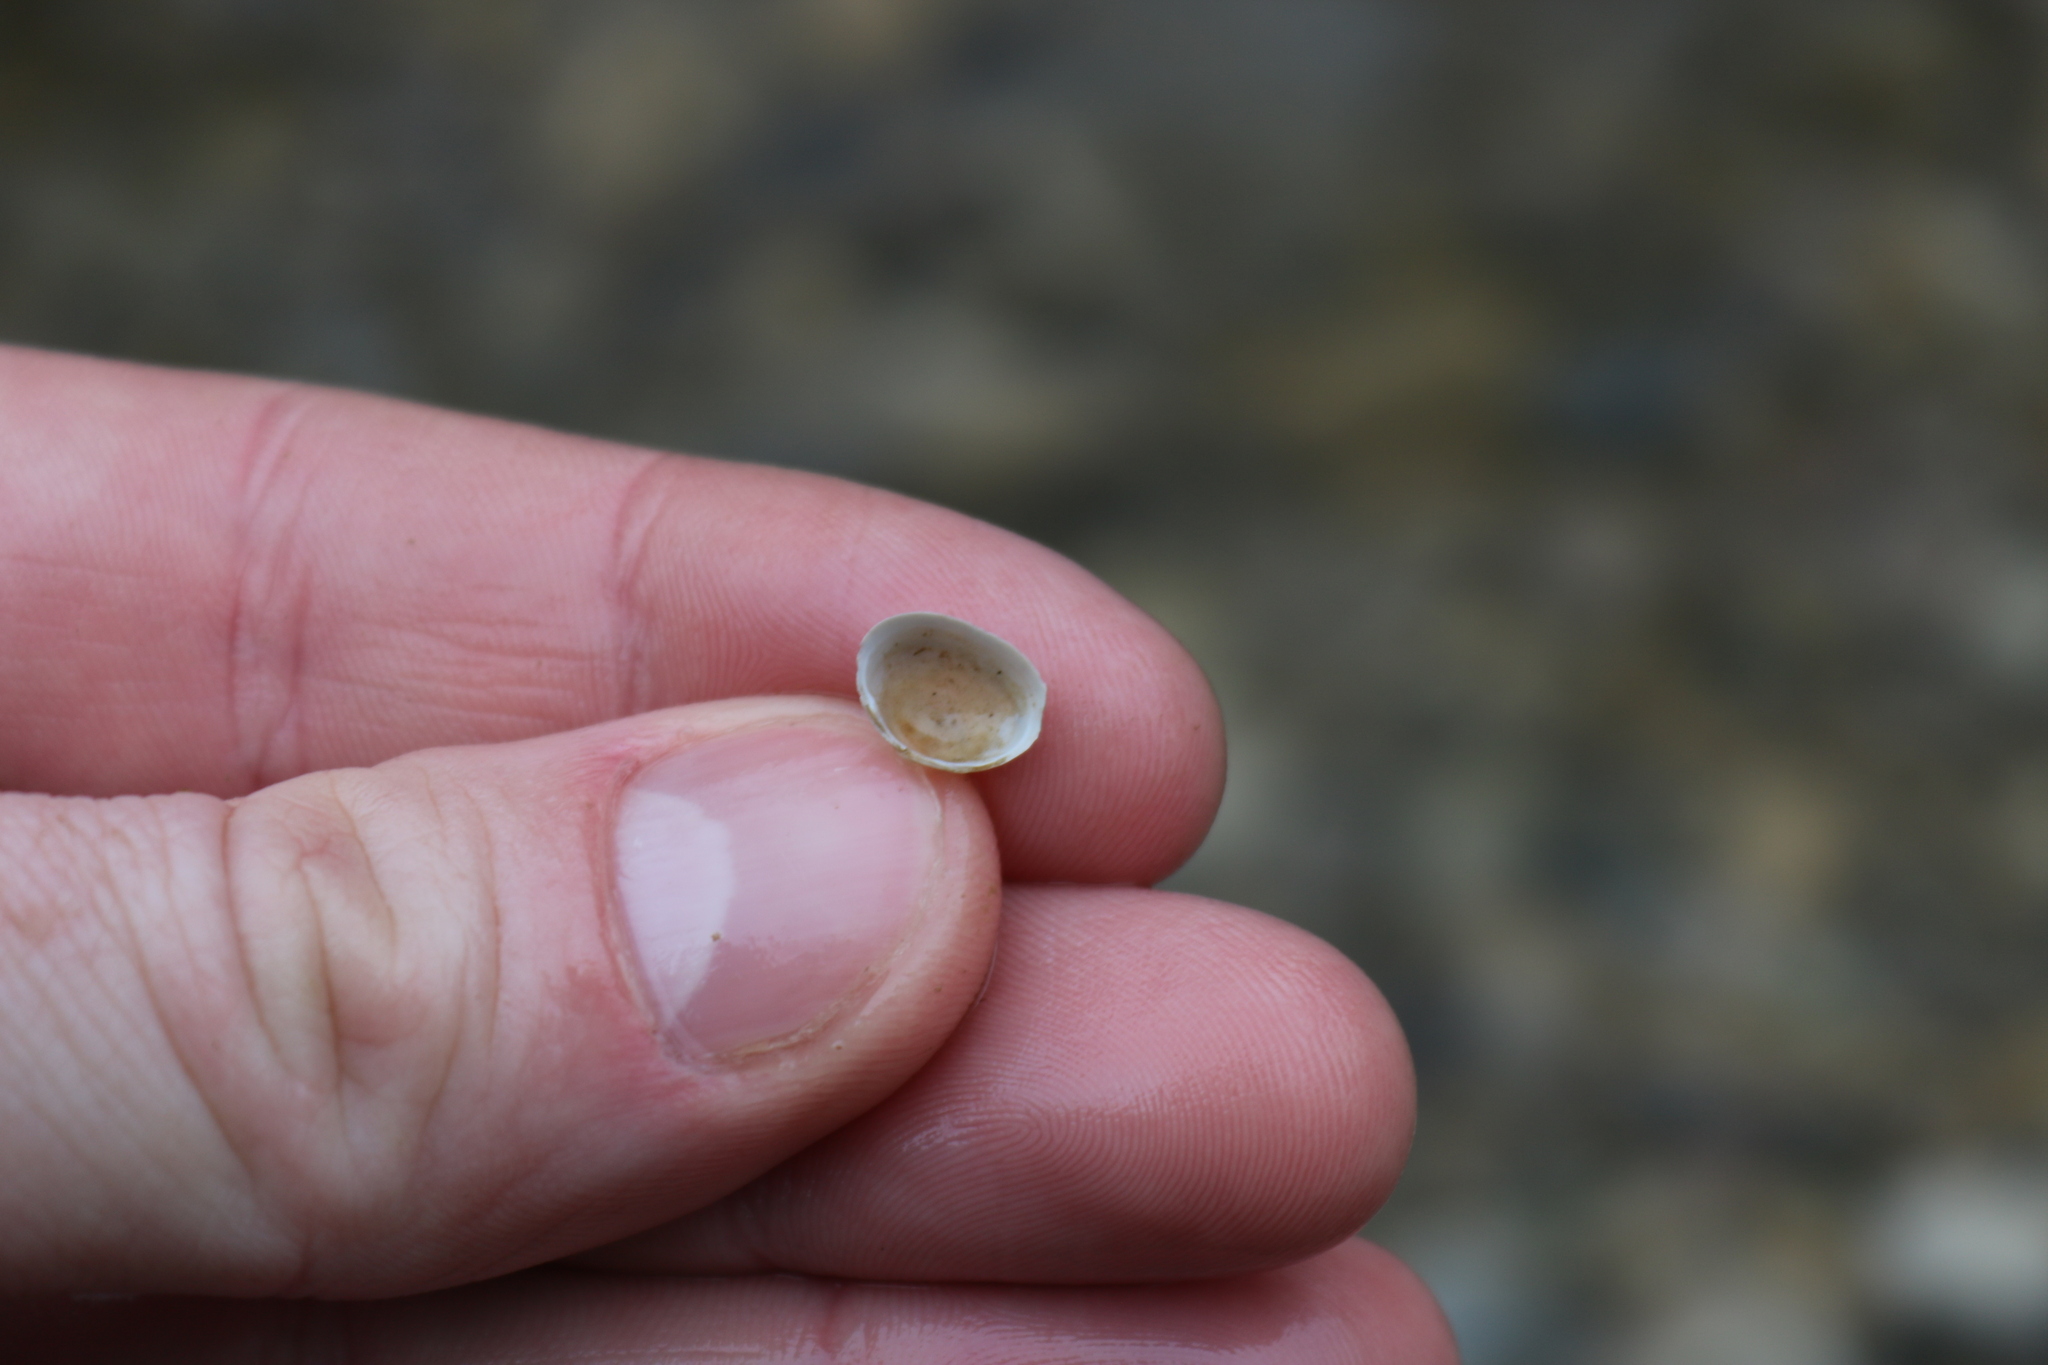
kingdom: Animalia
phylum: Mollusca
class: Bivalvia
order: Sphaeriida
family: Sphaeriidae
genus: Sphaerium
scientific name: Sphaerium simile
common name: Grooved fingernailclam
